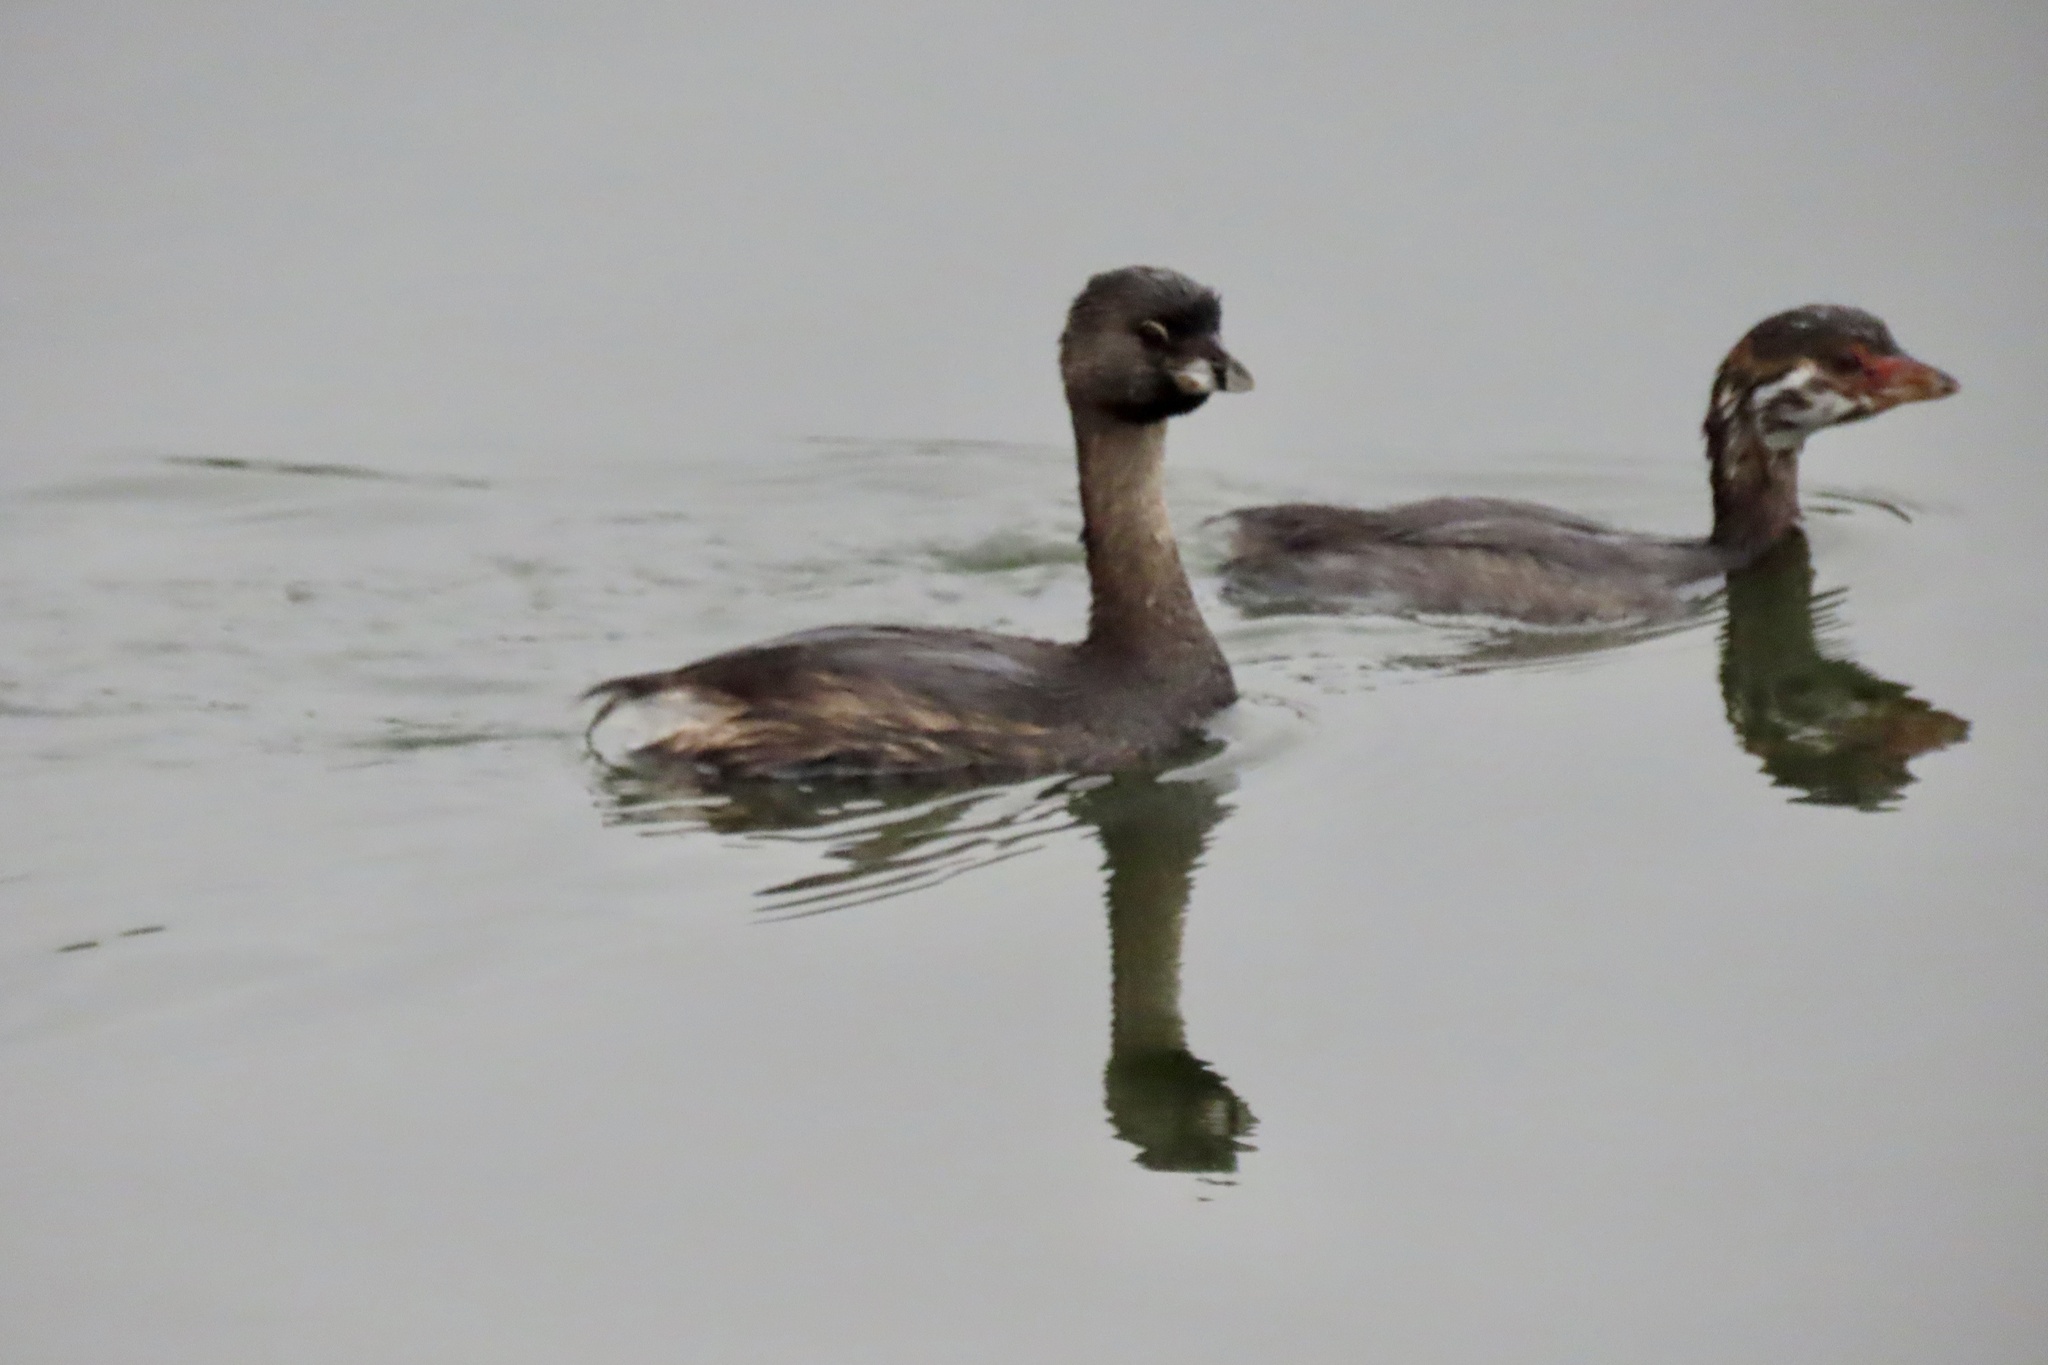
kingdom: Animalia
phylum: Chordata
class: Aves
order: Podicipediformes
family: Podicipedidae
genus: Podilymbus
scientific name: Podilymbus podiceps
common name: Pied-billed grebe
